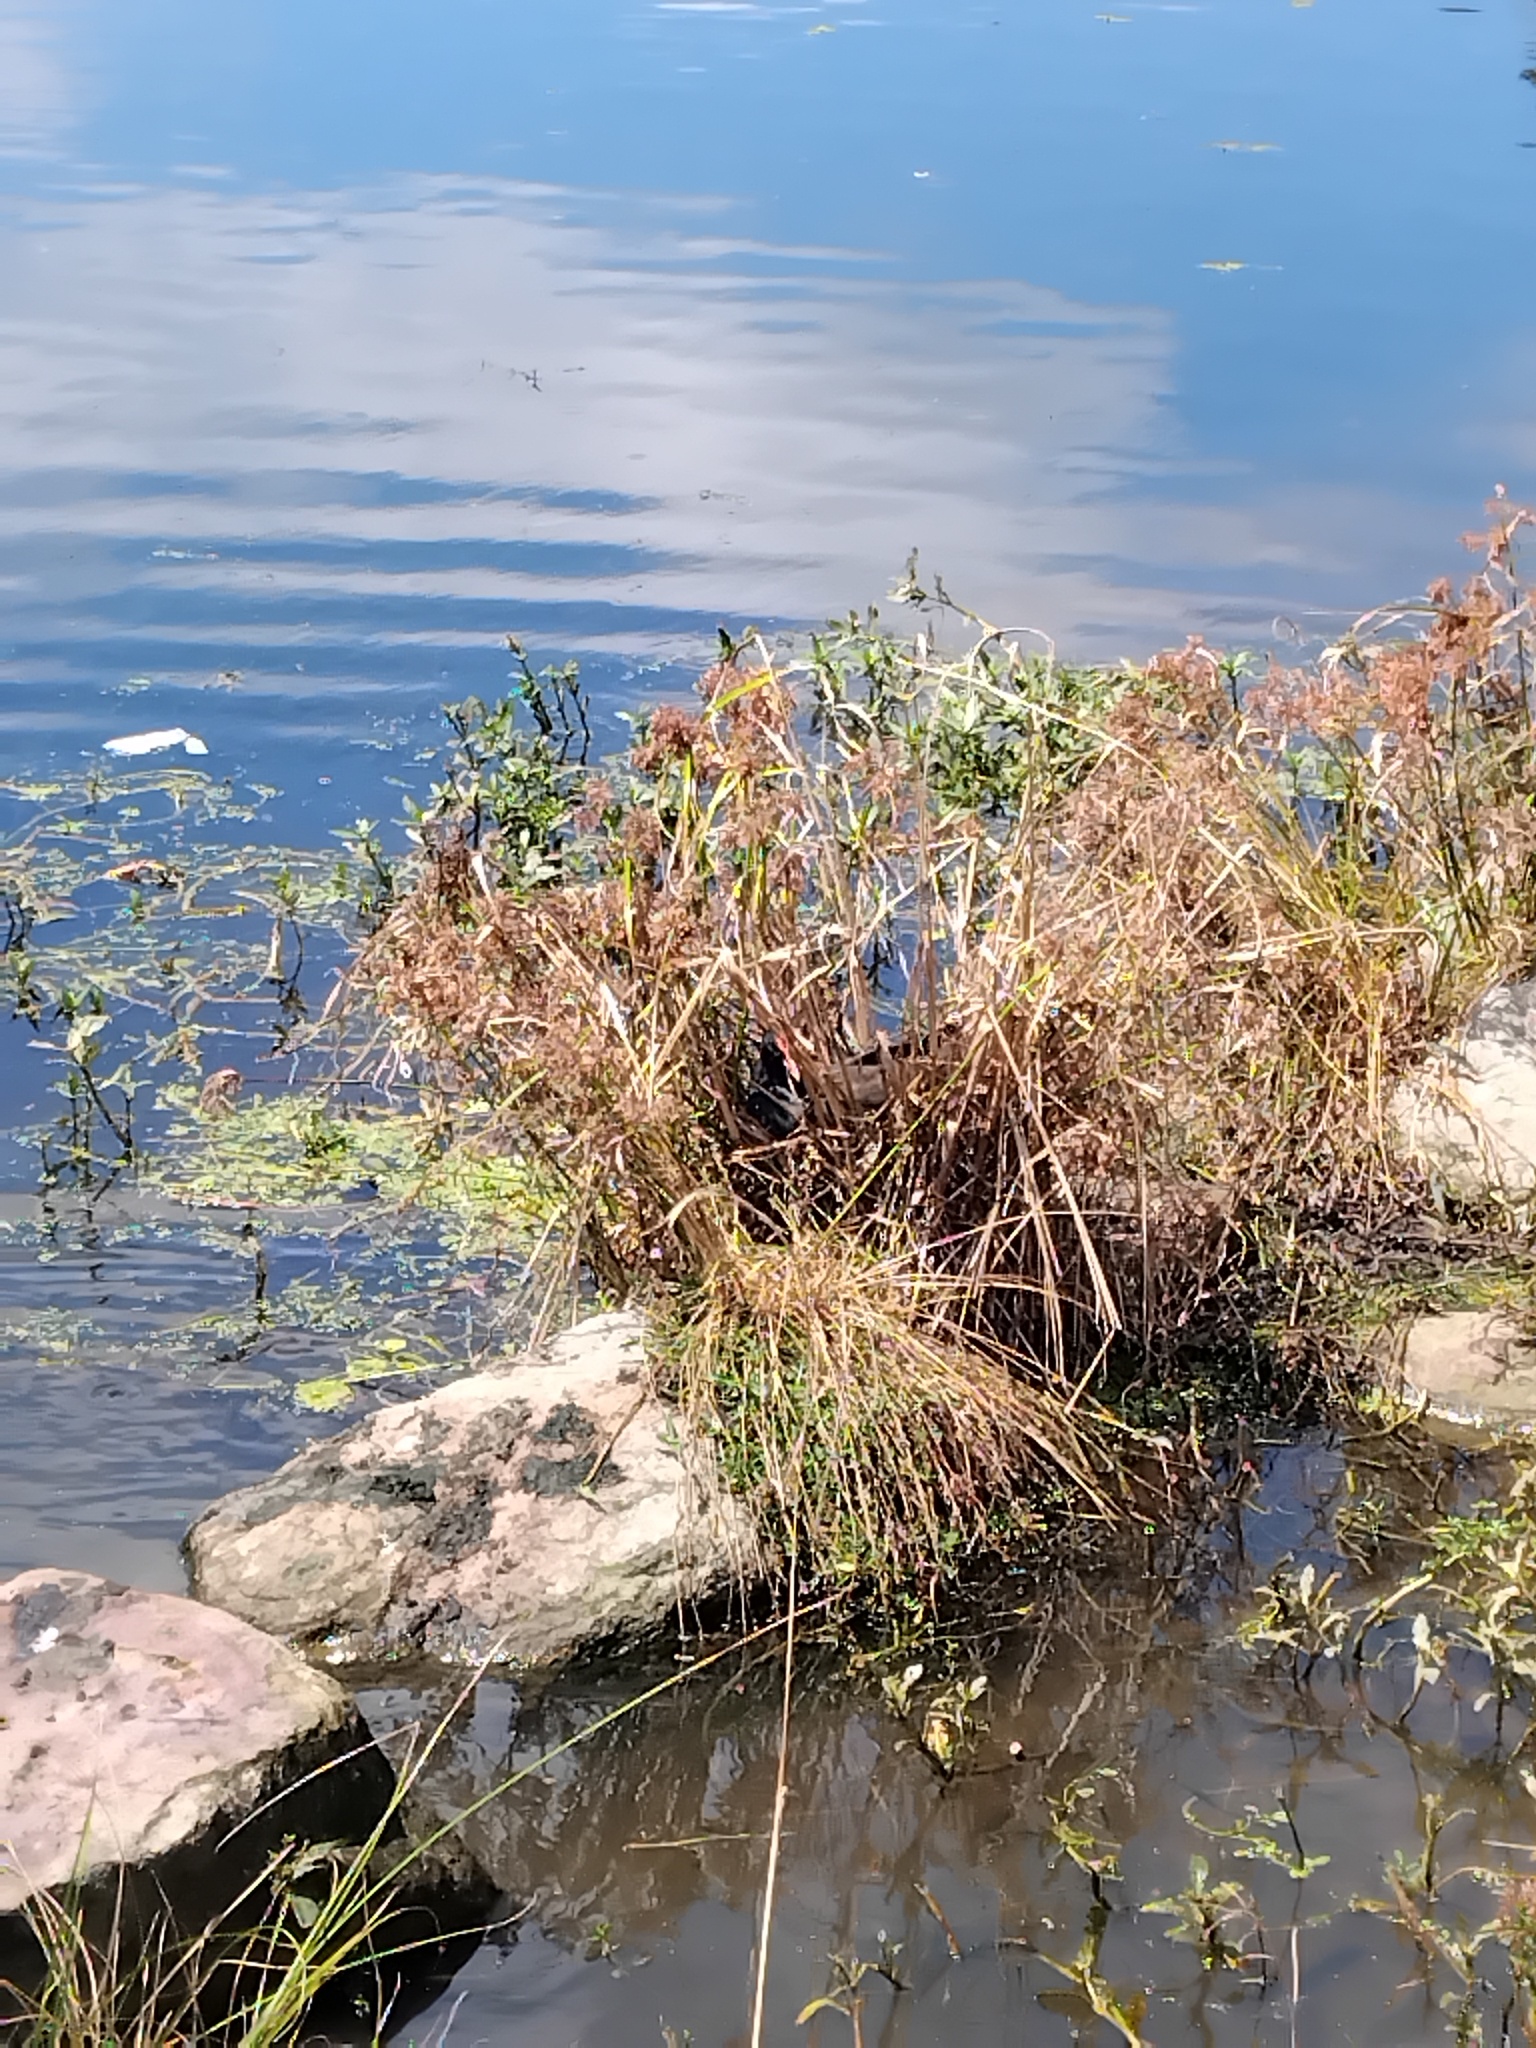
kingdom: Animalia
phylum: Chordata
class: Aves
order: Gruiformes
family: Rallidae
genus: Gallinula
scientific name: Gallinula tenebrosa
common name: Dusky moorhen
